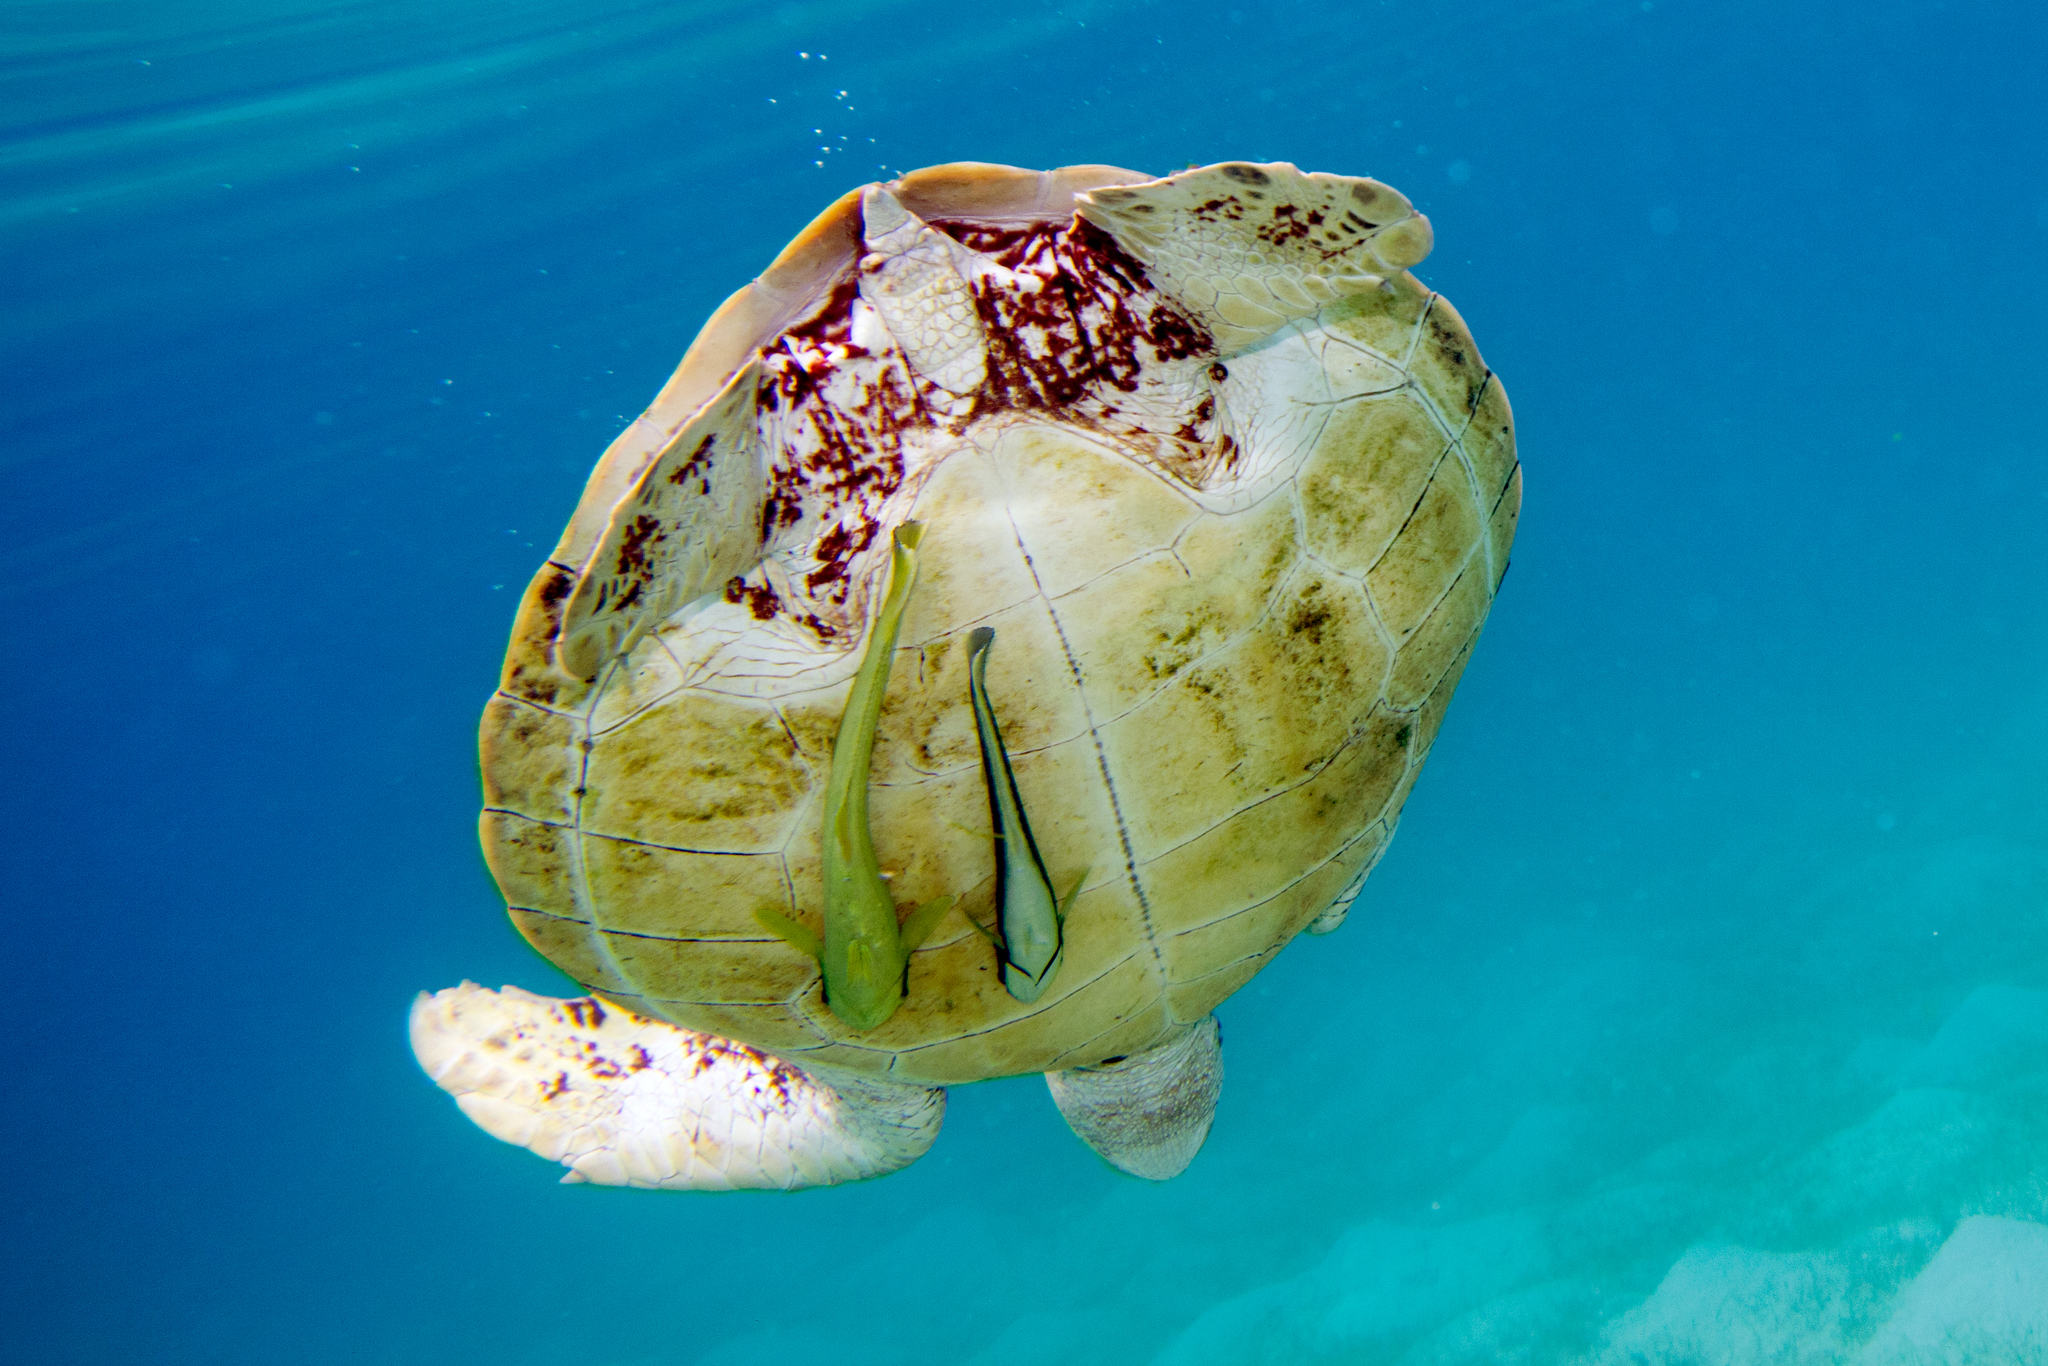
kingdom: Animalia
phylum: Chordata
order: Perciformes
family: Echeneidae
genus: Echeneis
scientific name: Echeneis naucrates
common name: Sharksucker
